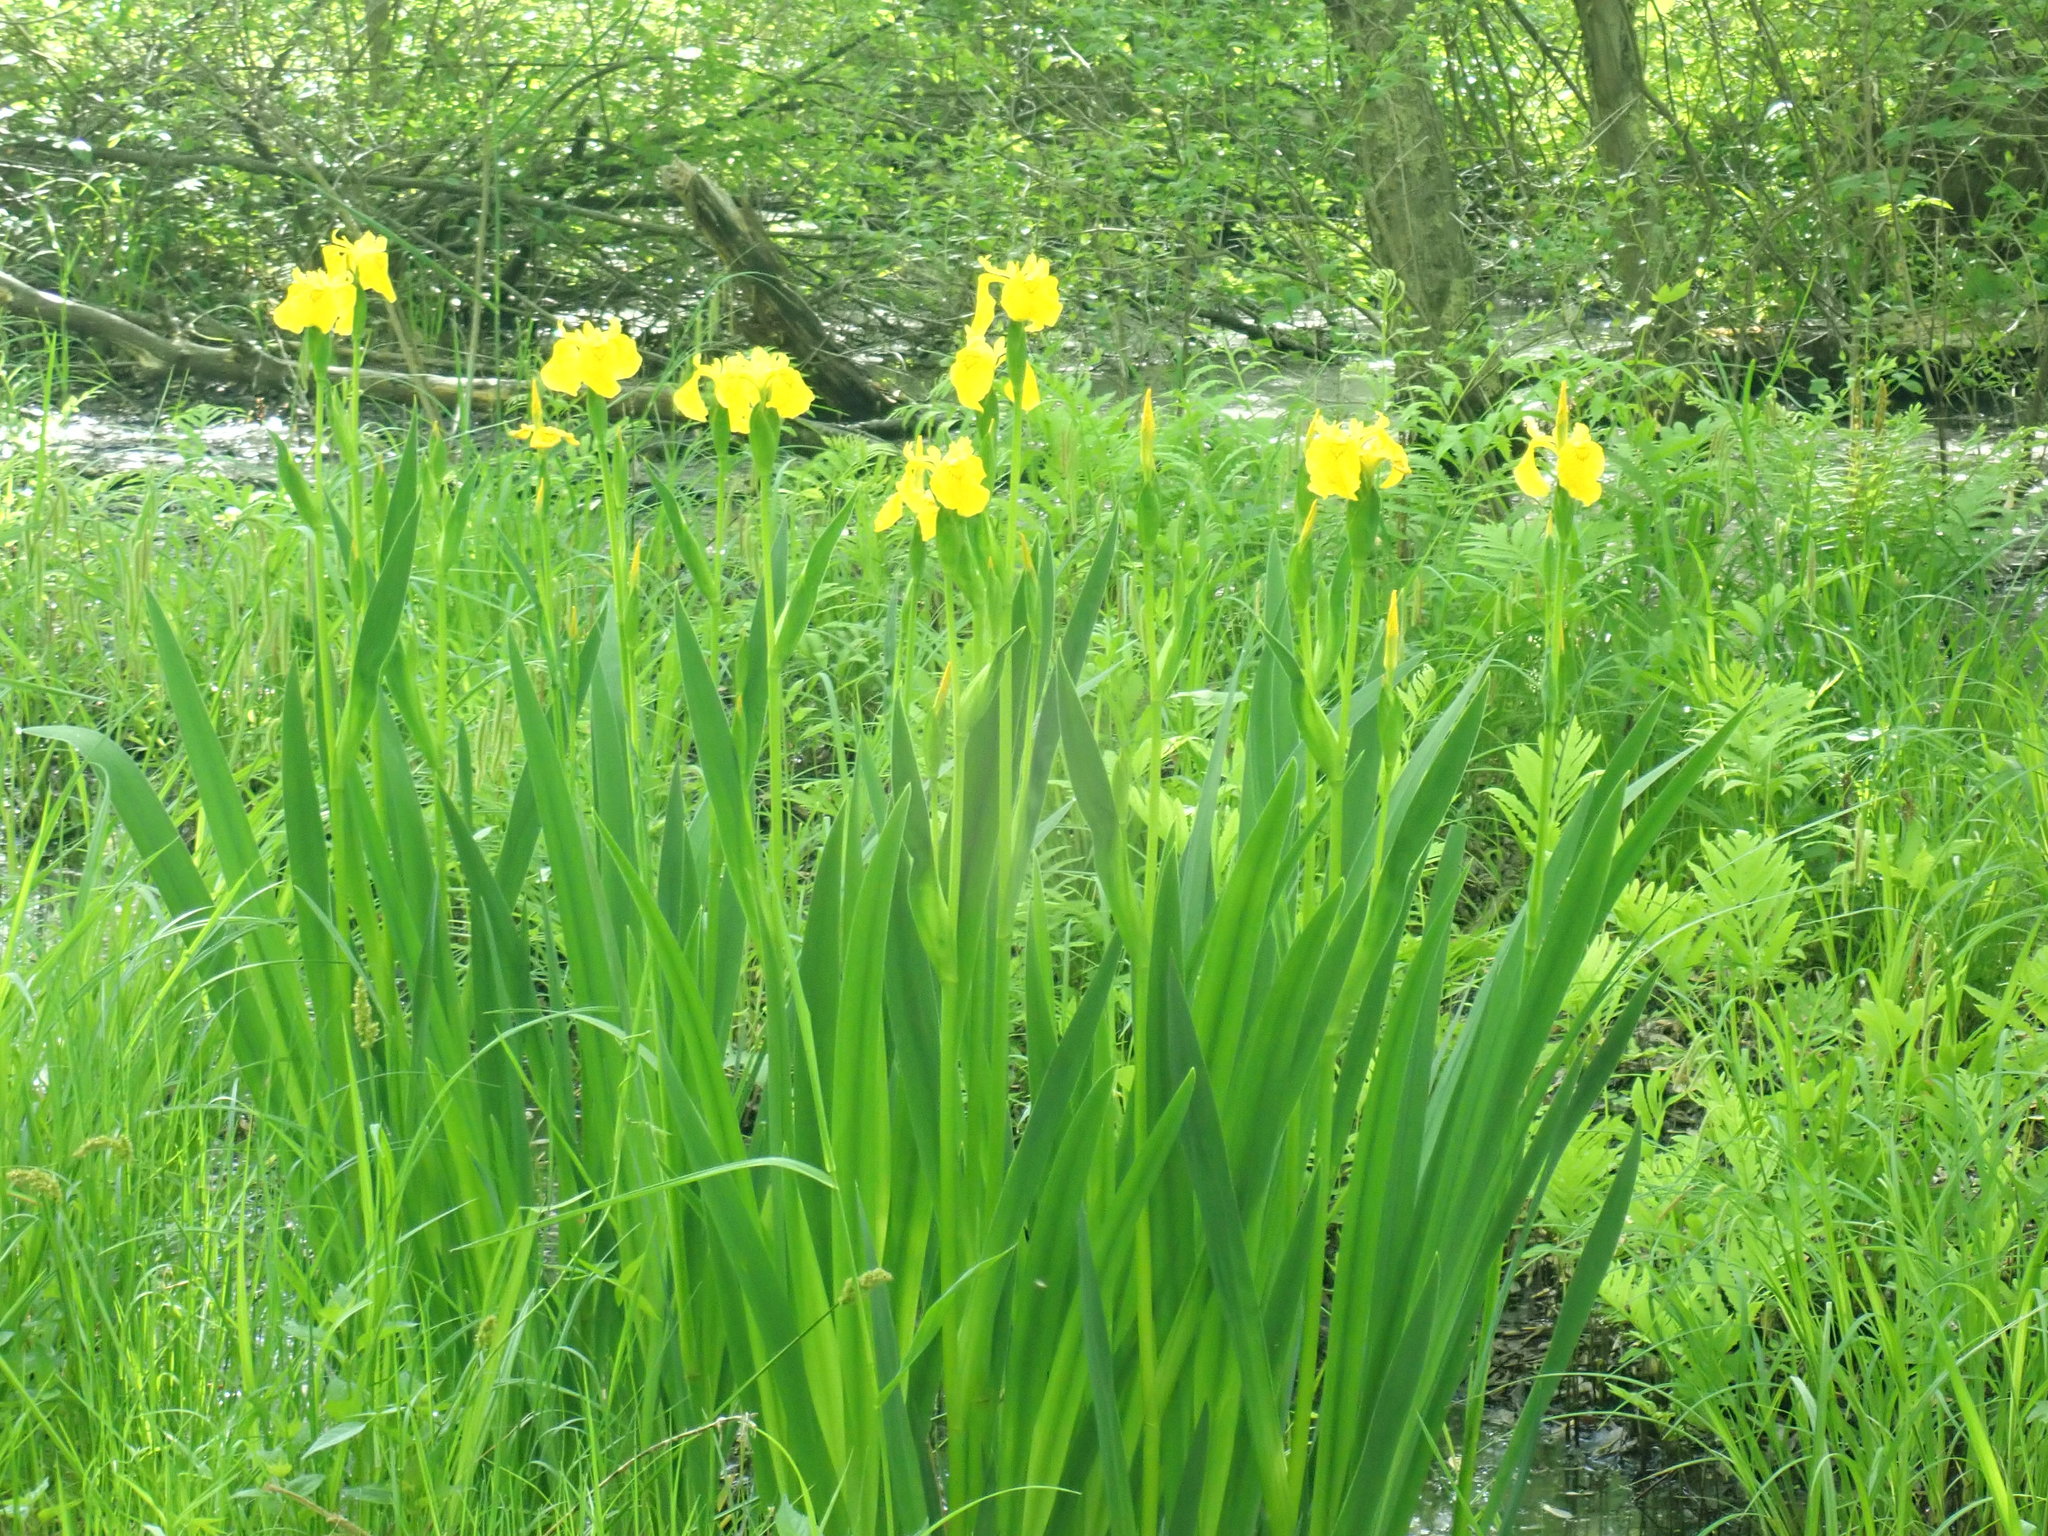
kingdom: Plantae
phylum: Tracheophyta
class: Liliopsida
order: Asparagales
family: Iridaceae
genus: Iris
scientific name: Iris pseudacorus
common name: Yellow flag
